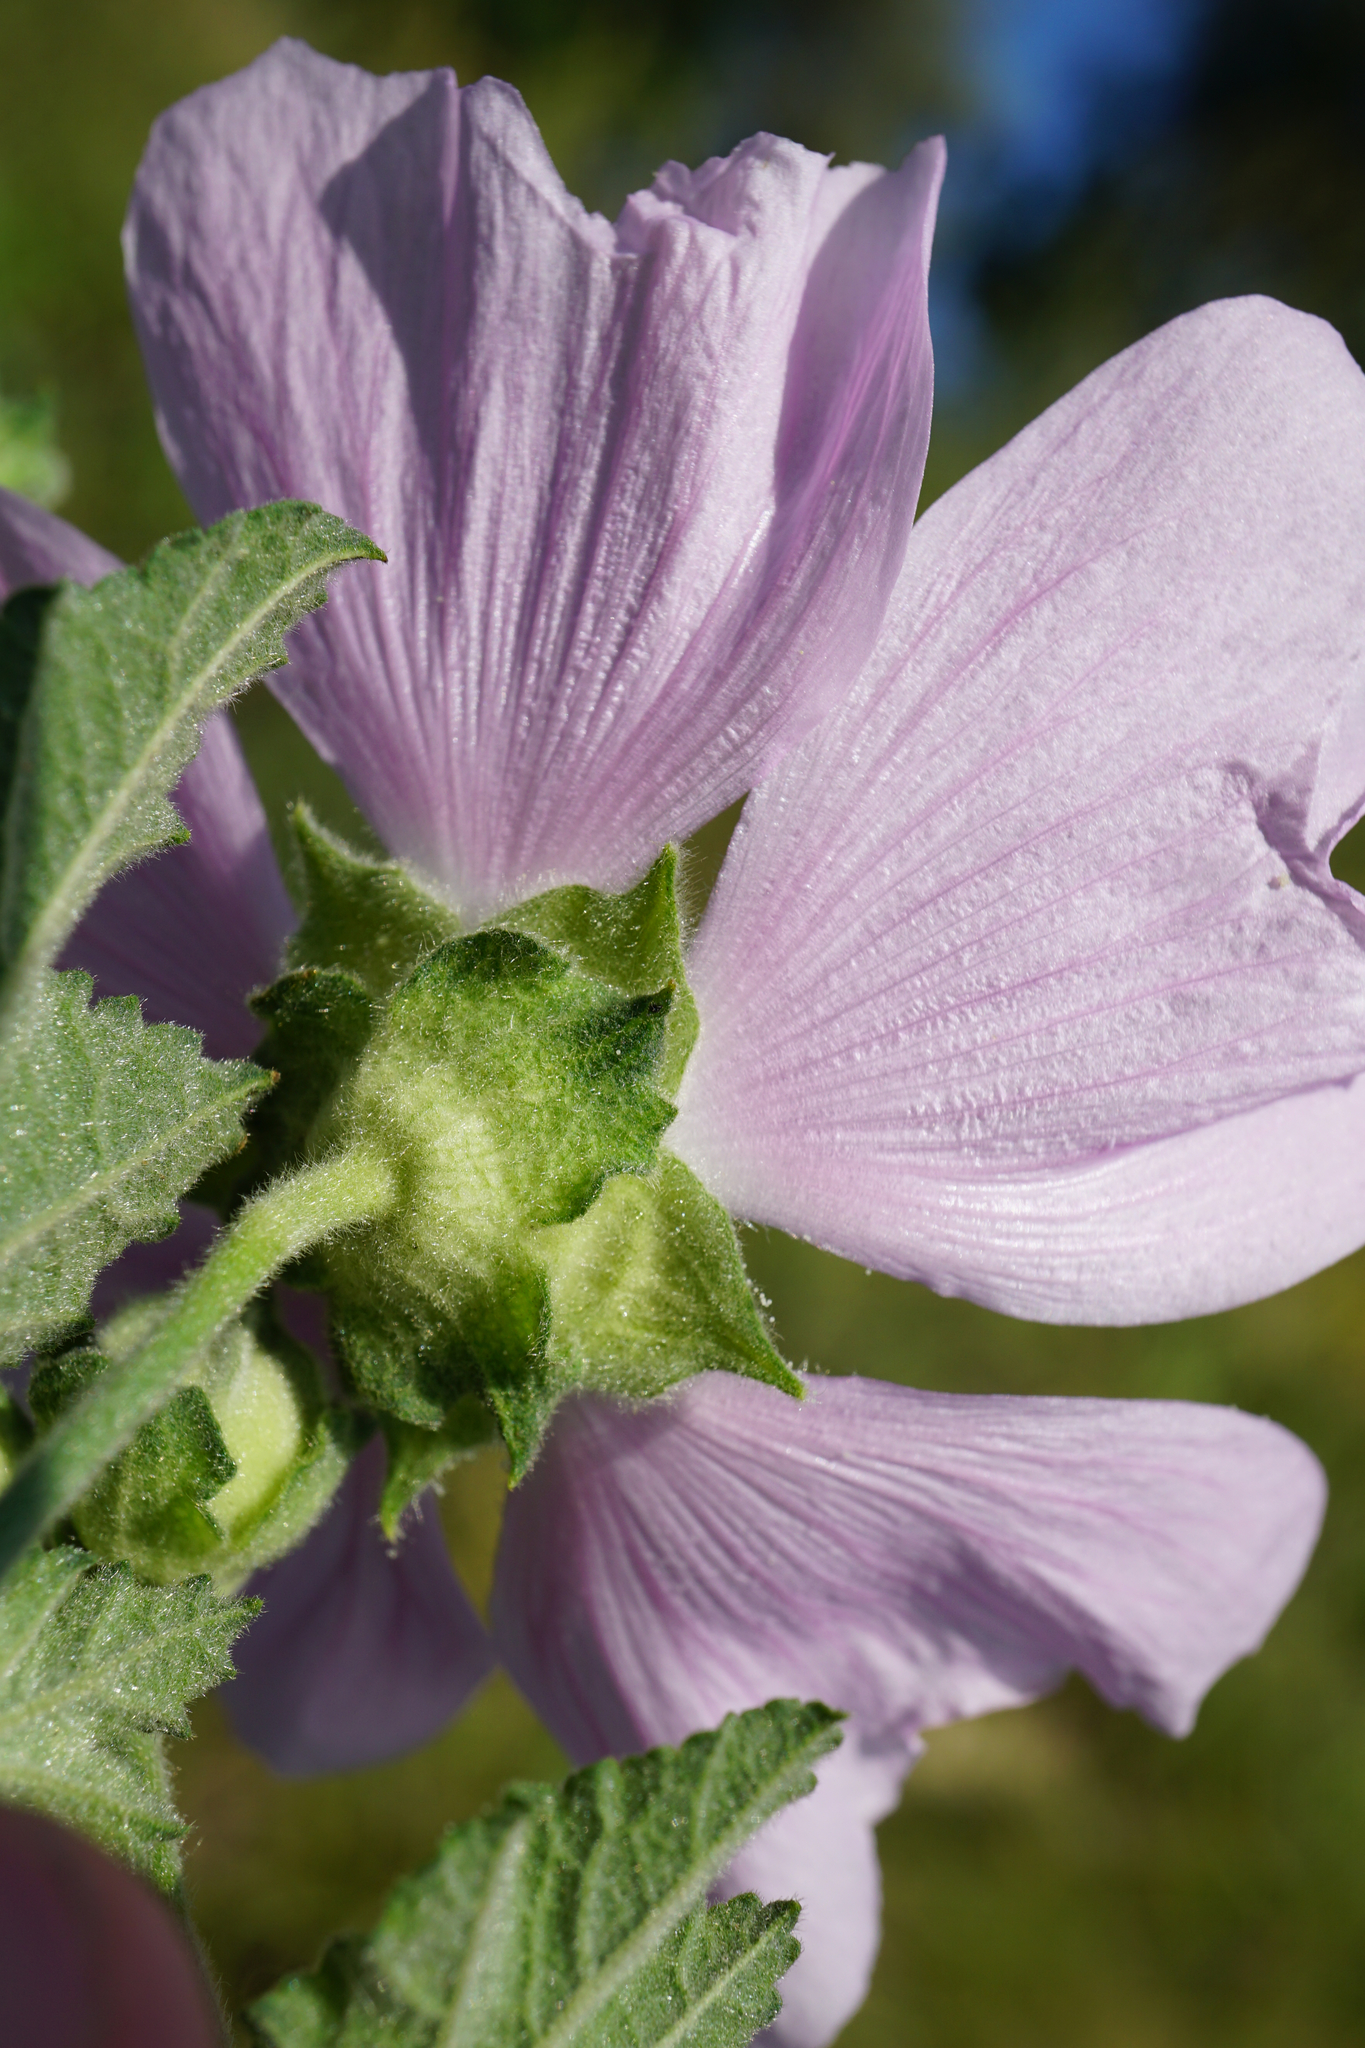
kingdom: Plantae
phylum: Tracheophyta
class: Magnoliopsida
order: Malvales
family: Malvaceae
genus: Malva
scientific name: Malva thuringiaca
